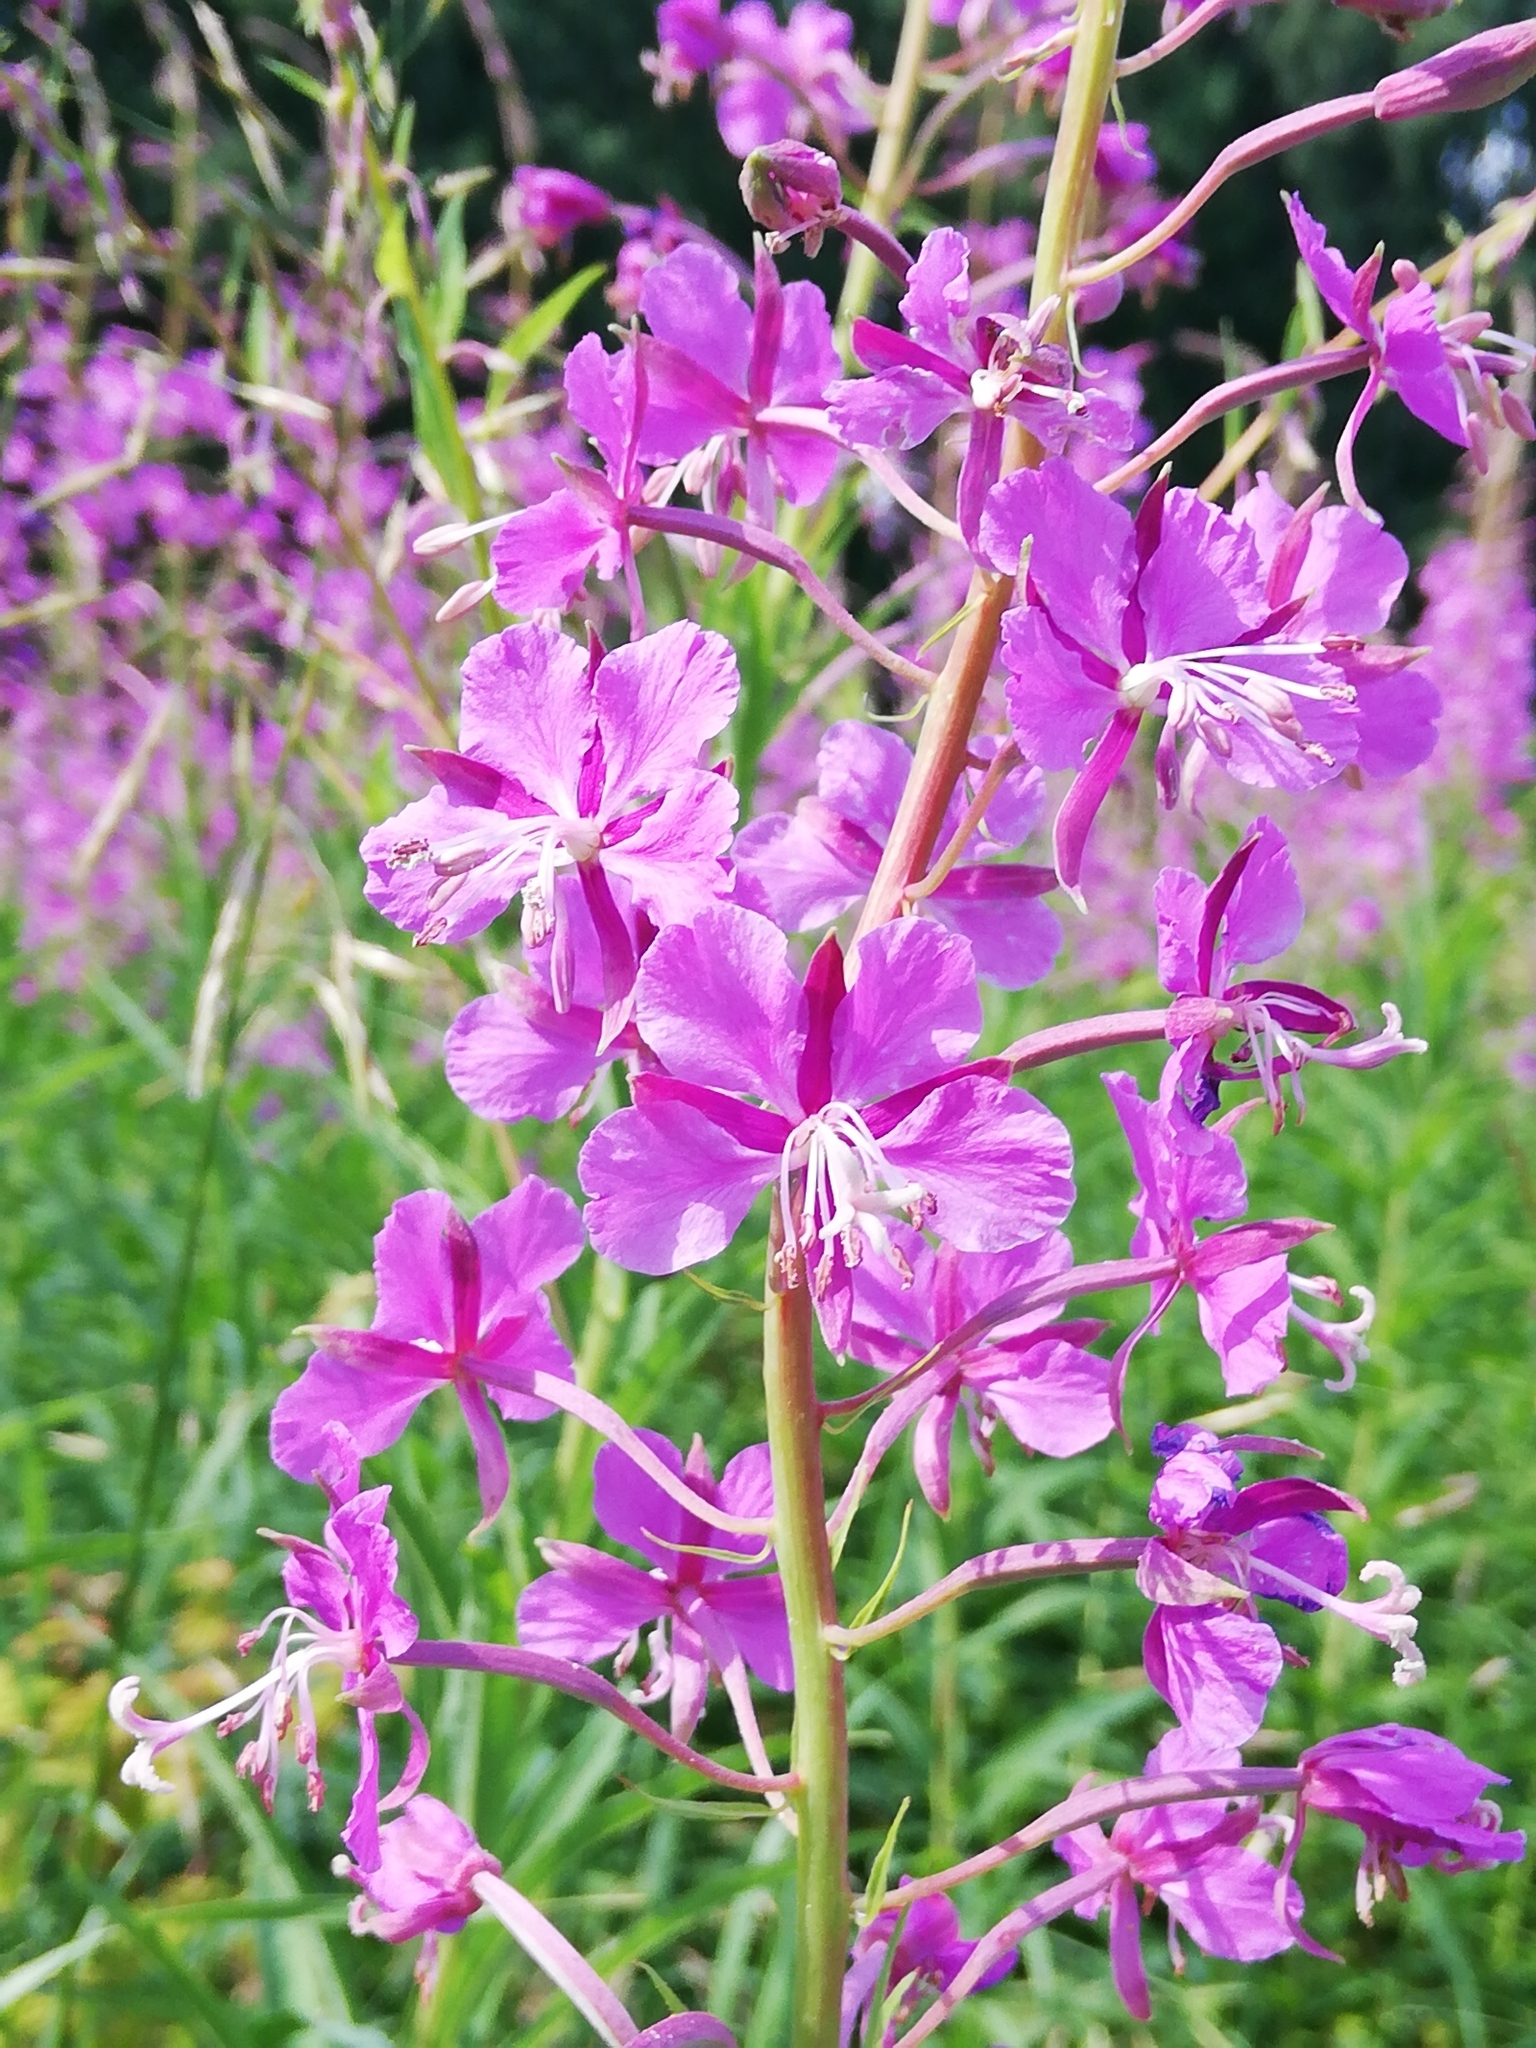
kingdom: Plantae
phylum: Tracheophyta
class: Magnoliopsida
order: Myrtales
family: Onagraceae
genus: Chamaenerion
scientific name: Chamaenerion angustifolium
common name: Fireweed
